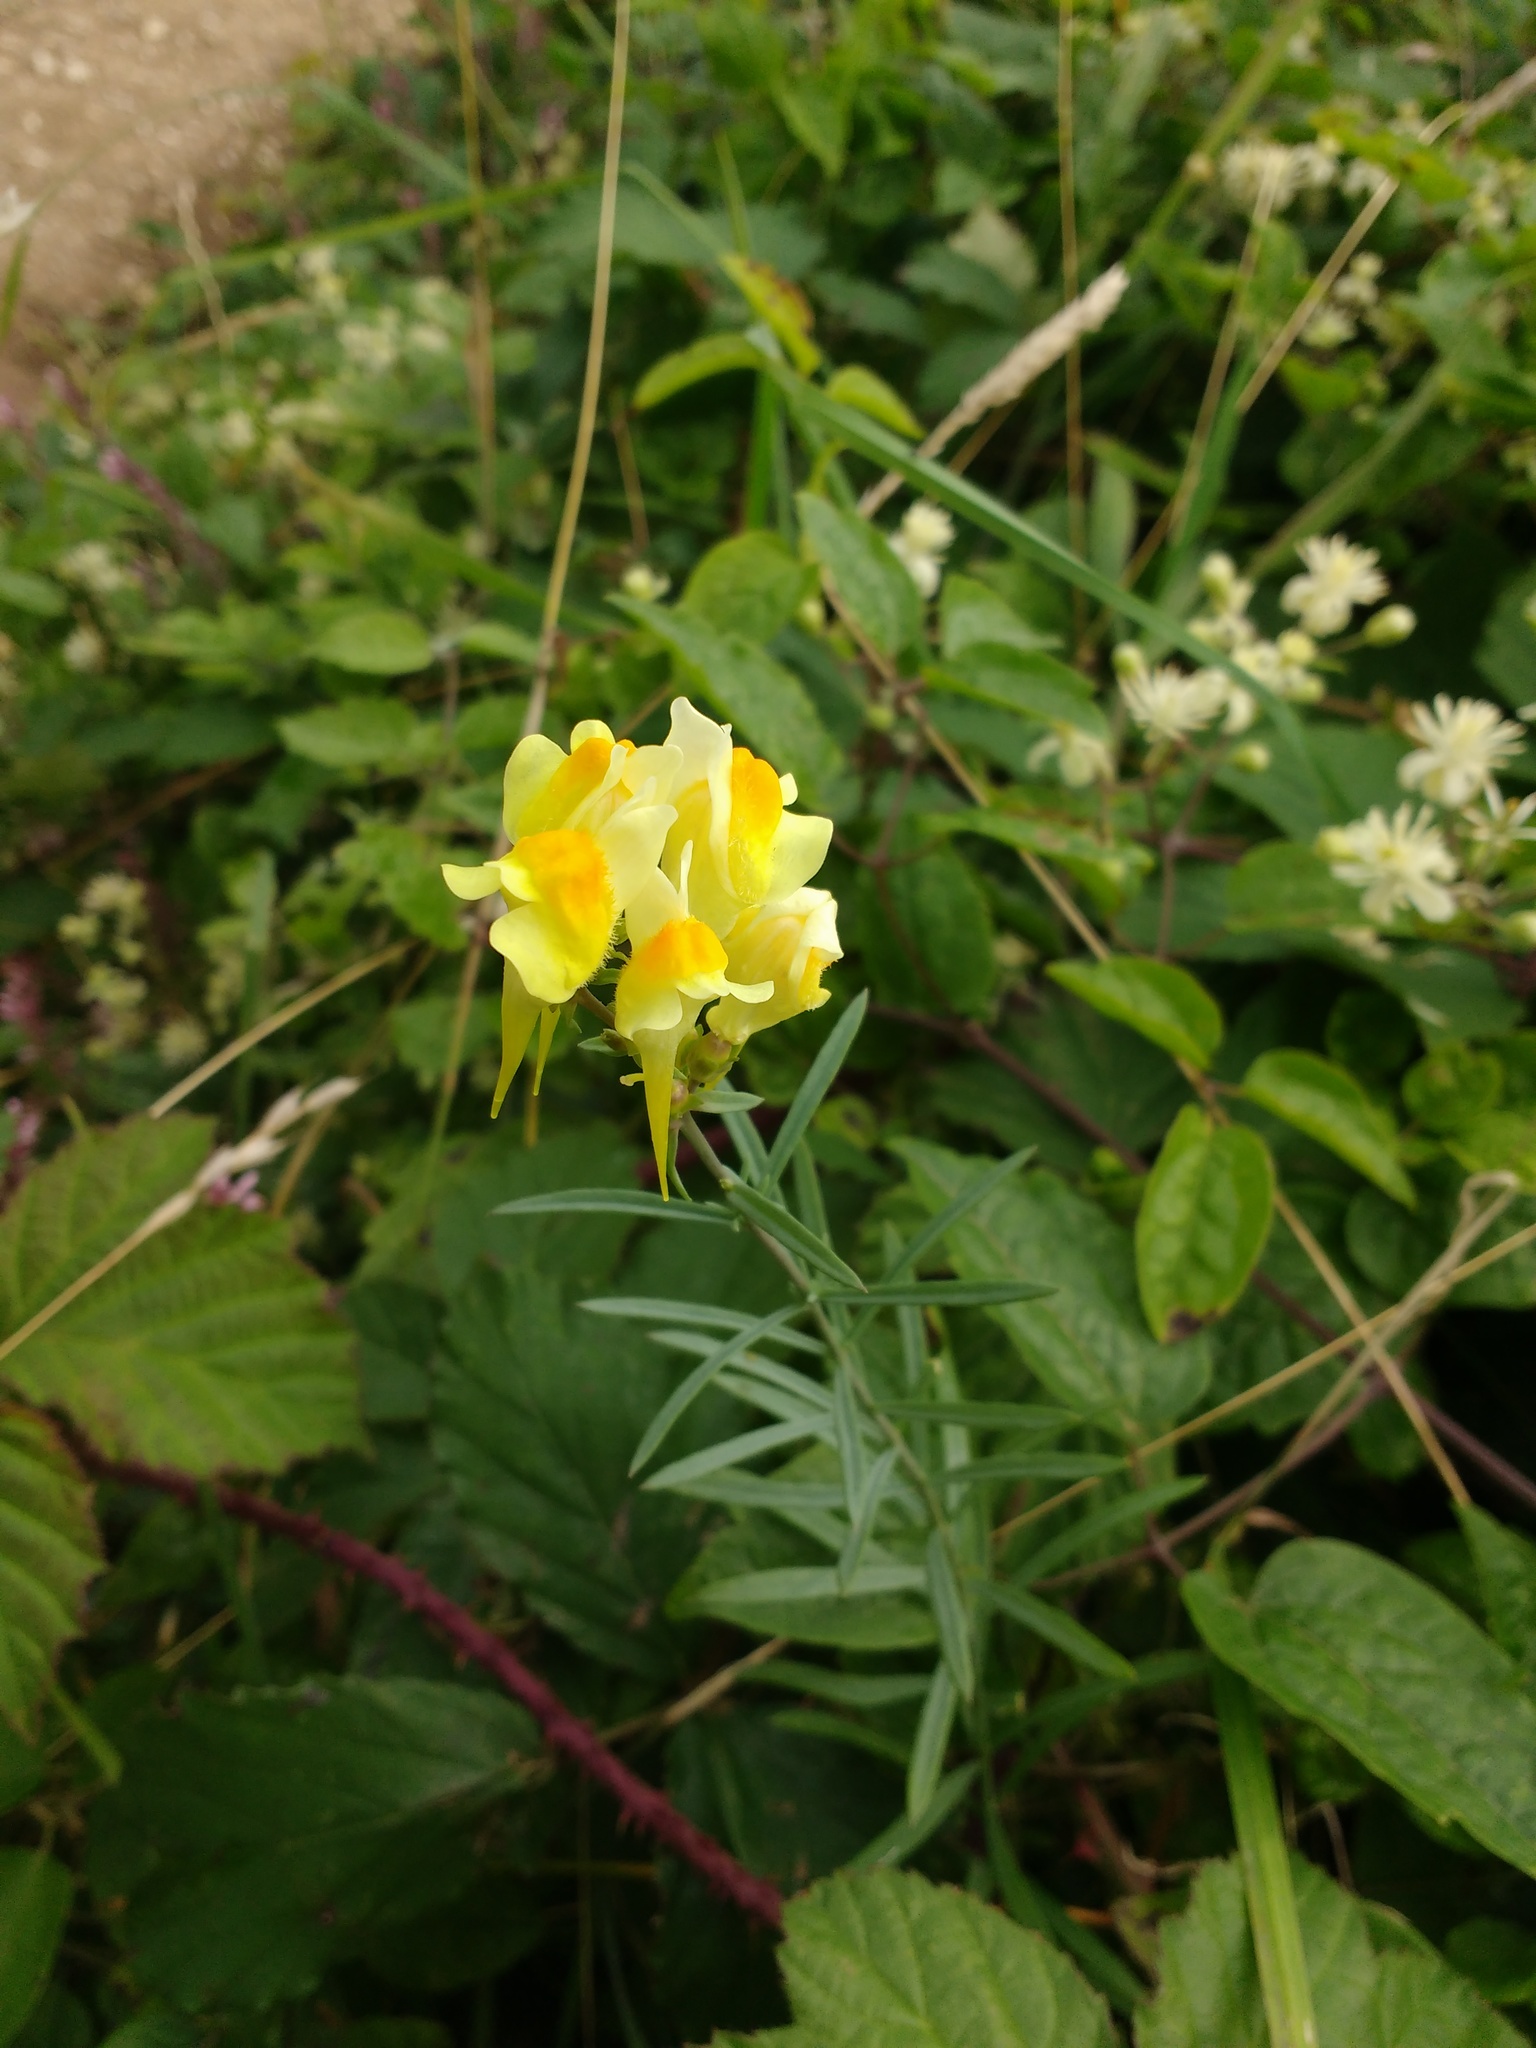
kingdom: Plantae
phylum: Tracheophyta
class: Magnoliopsida
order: Lamiales
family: Plantaginaceae
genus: Linaria
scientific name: Linaria vulgaris
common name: Butter and eggs
